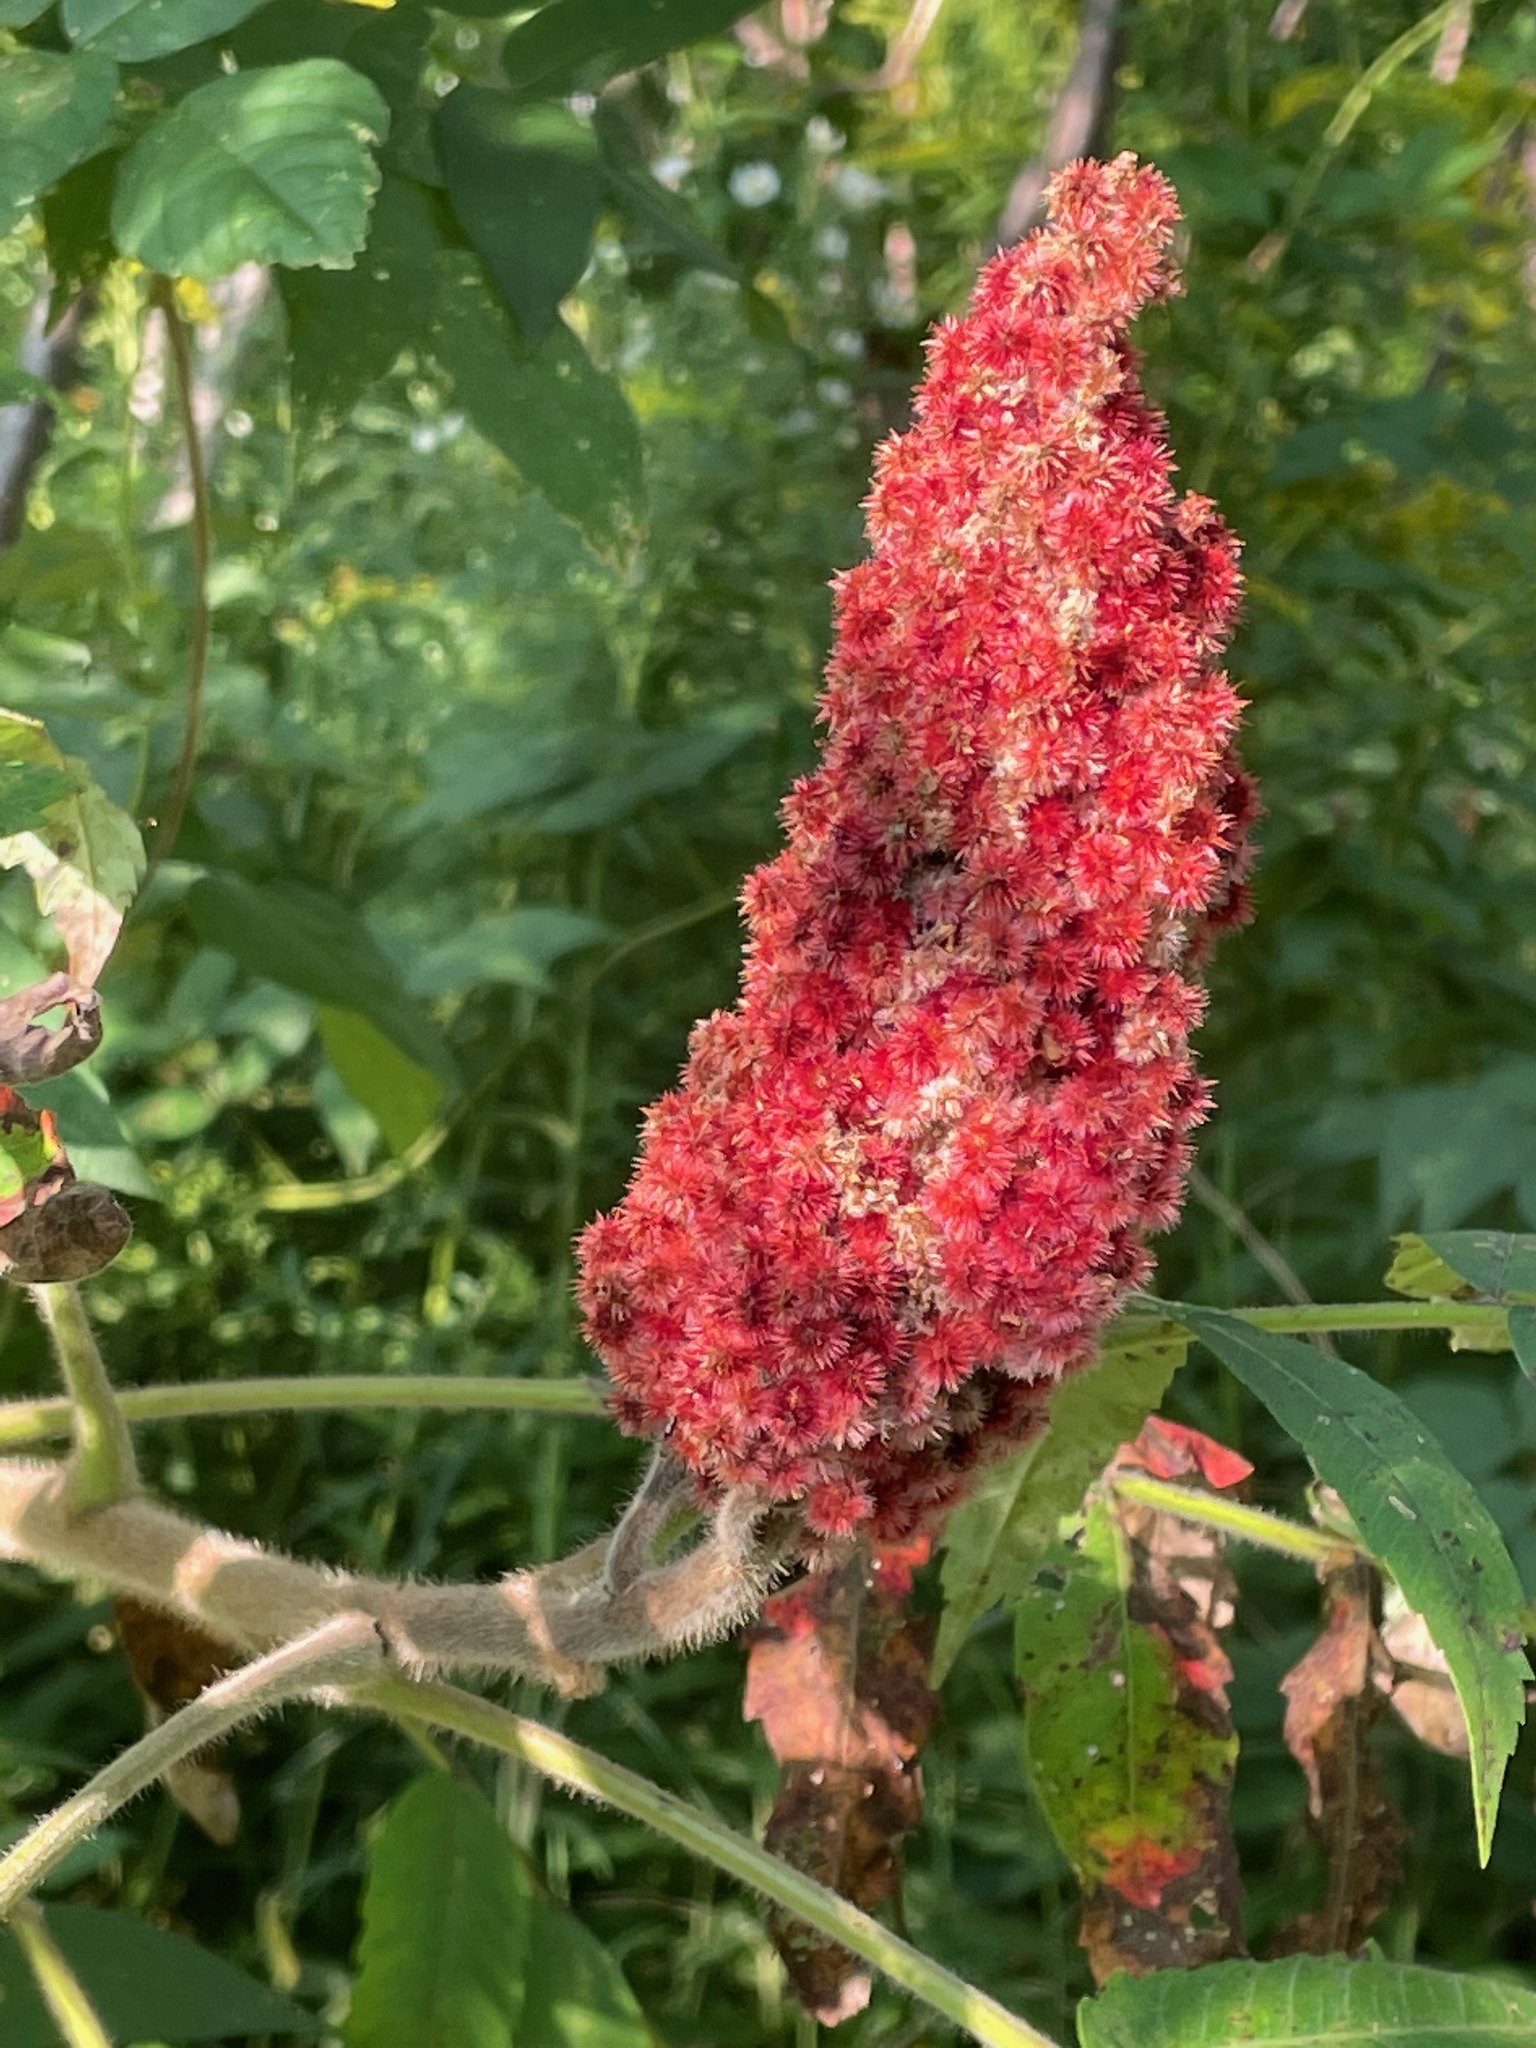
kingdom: Plantae
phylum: Tracheophyta
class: Magnoliopsida
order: Sapindales
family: Anacardiaceae
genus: Rhus
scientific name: Rhus typhina
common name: Staghorn sumac
